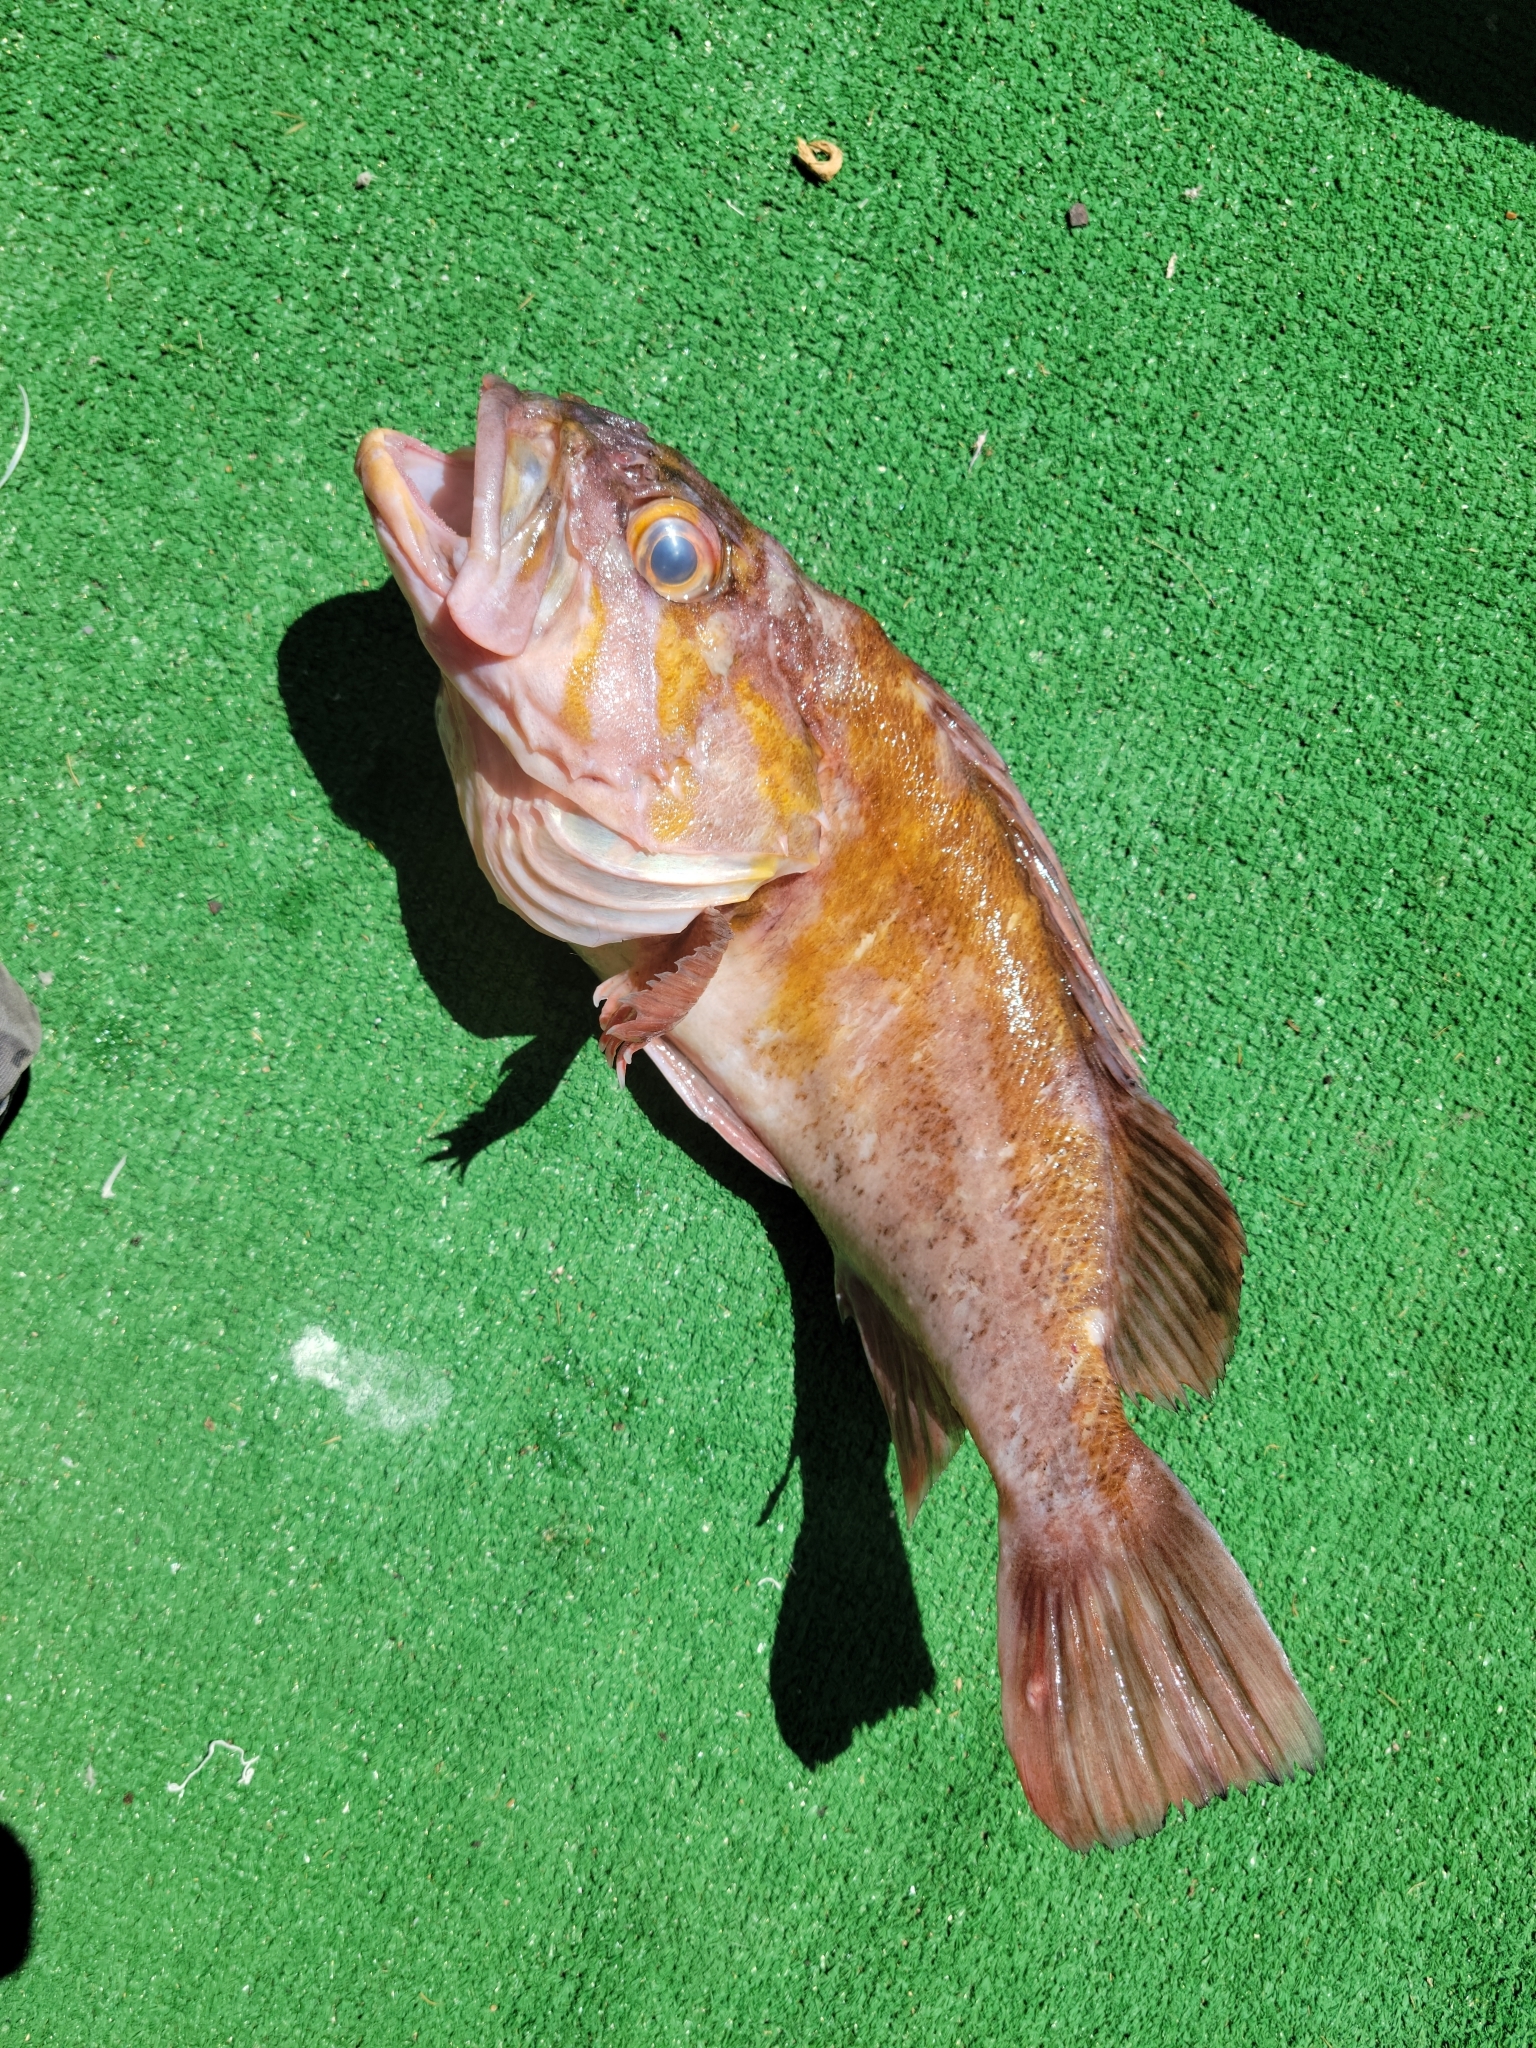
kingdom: Animalia
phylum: Chordata
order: Scorpaeniformes
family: Sebastidae
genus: Sebastes
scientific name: Sebastes caurinus
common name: Copper rockfish
